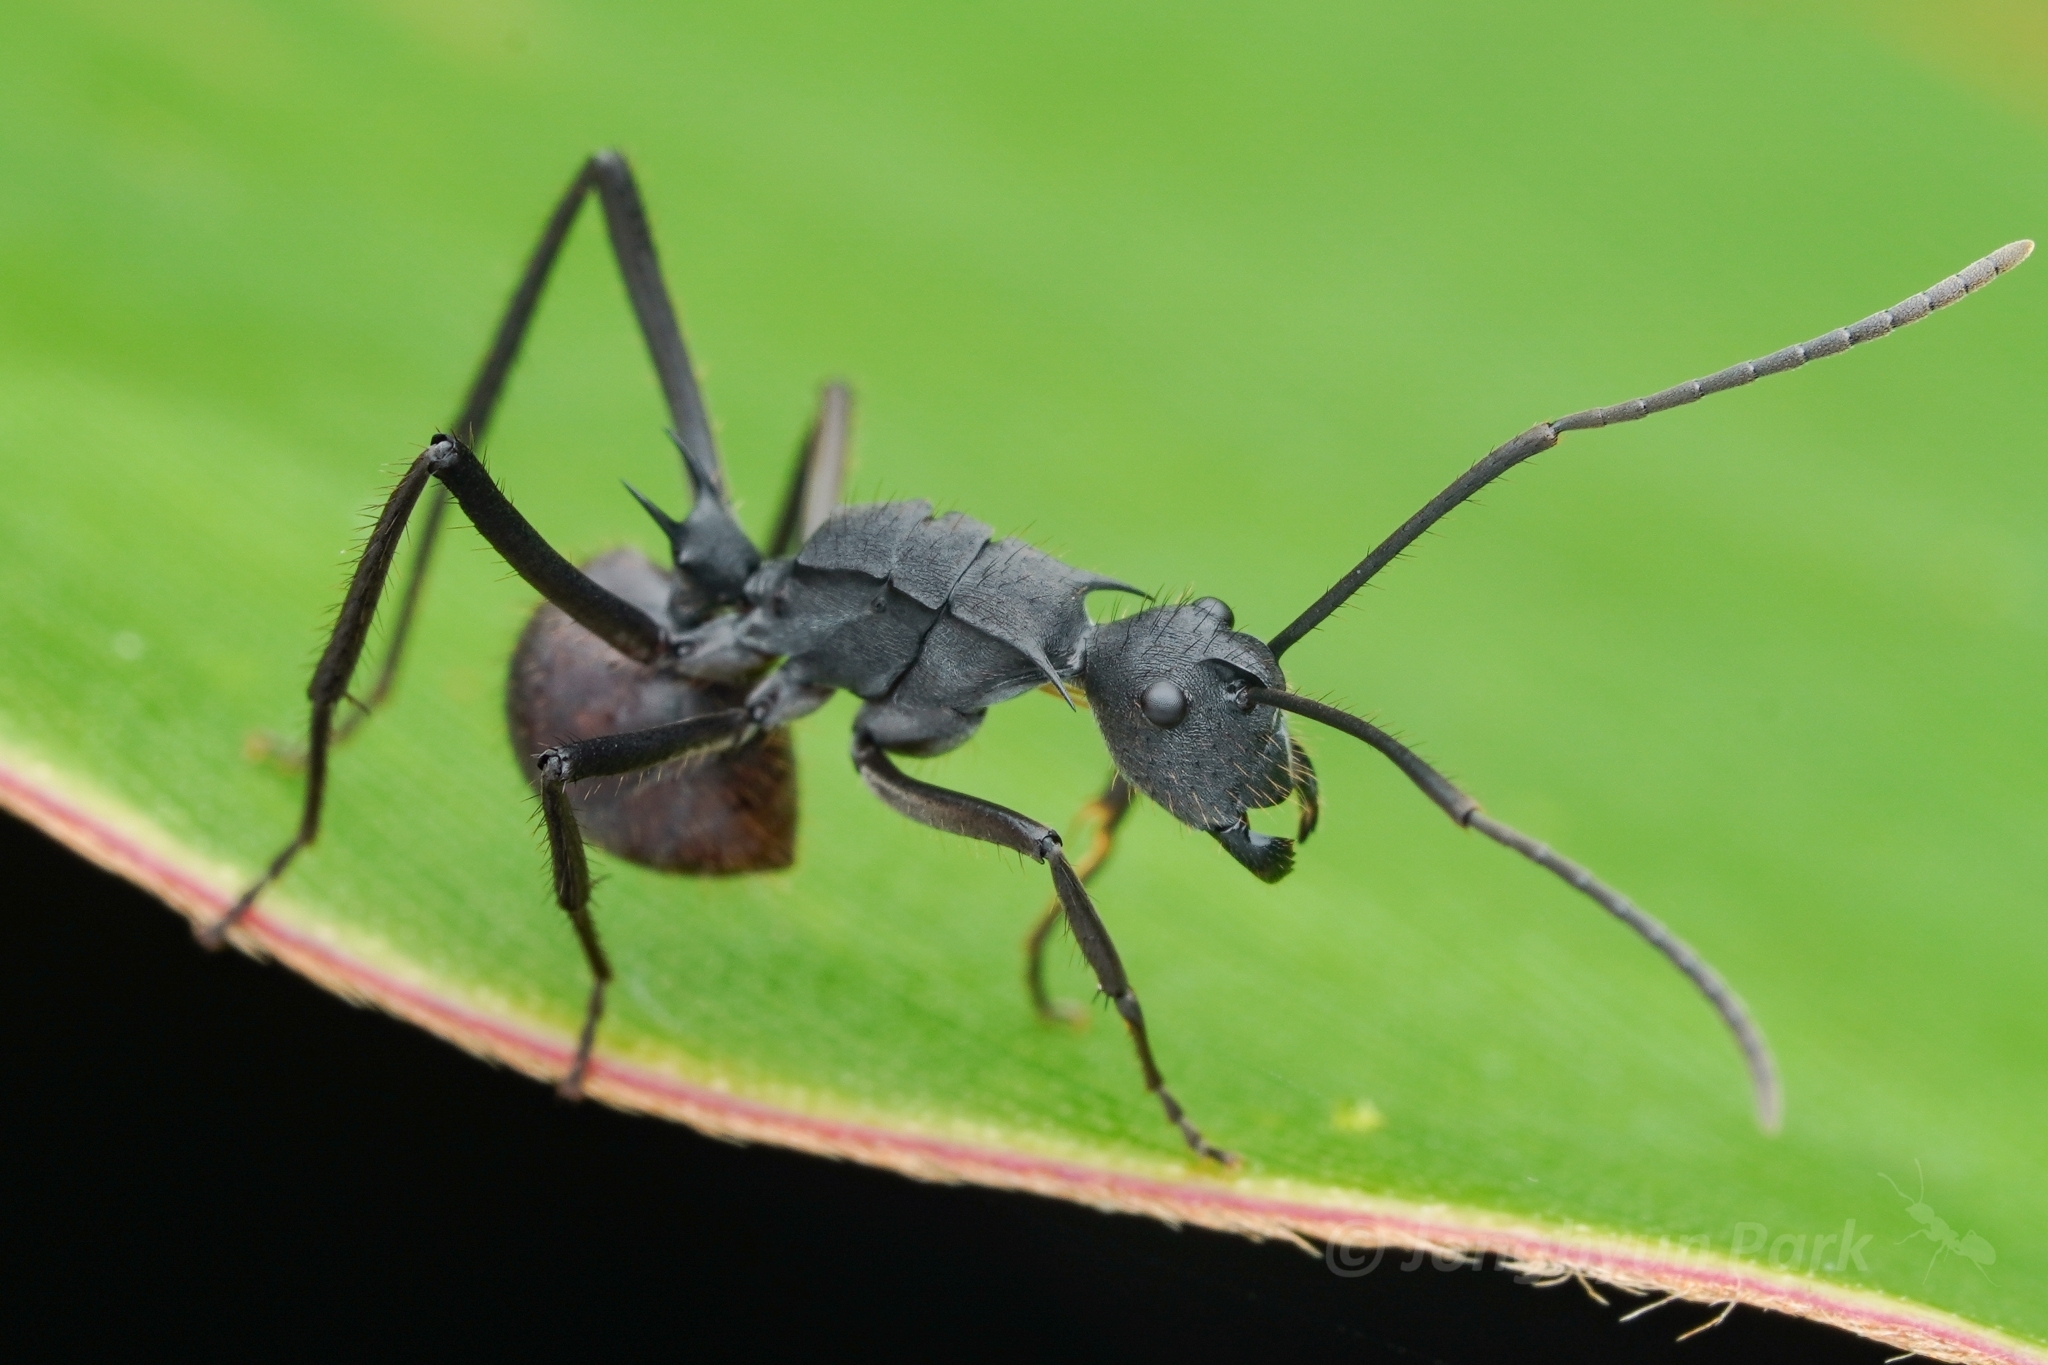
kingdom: Animalia
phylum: Arthropoda
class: Insecta
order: Hymenoptera
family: Formicidae
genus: Polyrhachis
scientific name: Polyrhachis striata
